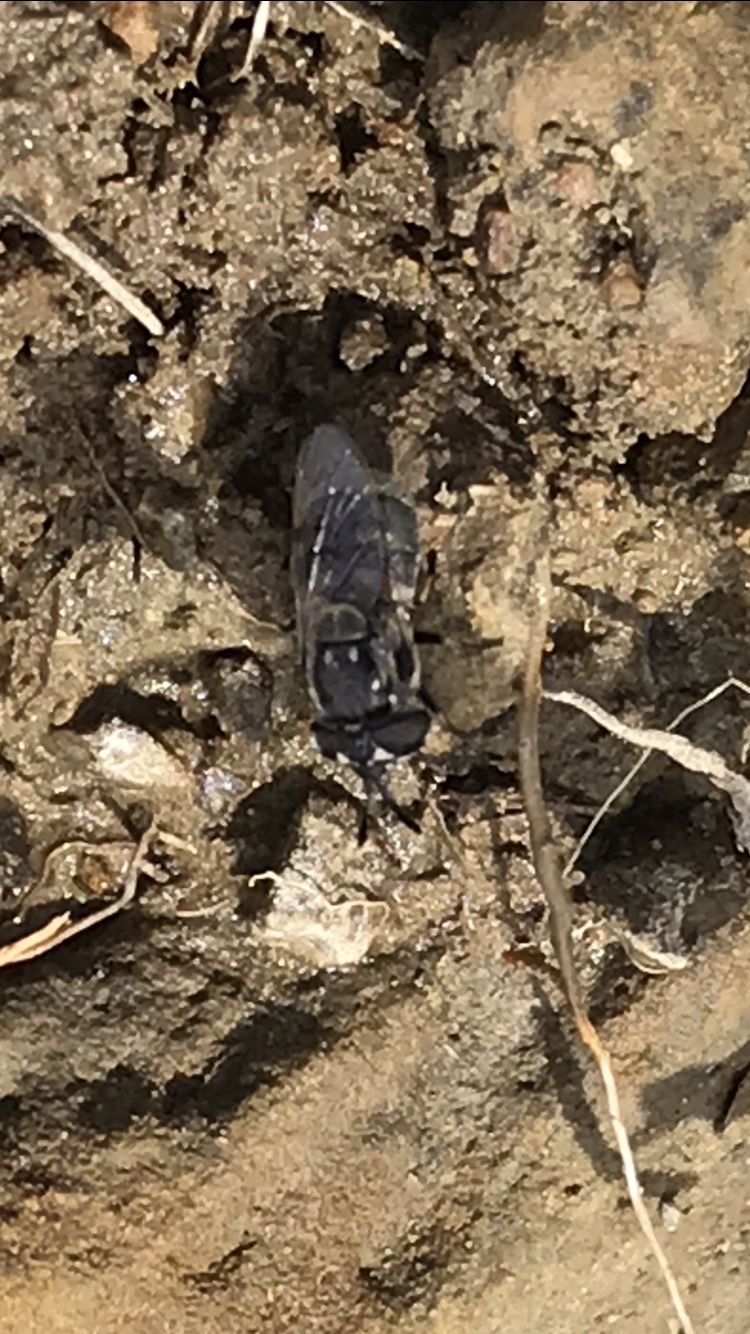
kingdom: Animalia
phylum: Arthropoda
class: Insecta
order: Diptera
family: Syrphidae
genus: Copestylum
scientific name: Copestylum caudatum
